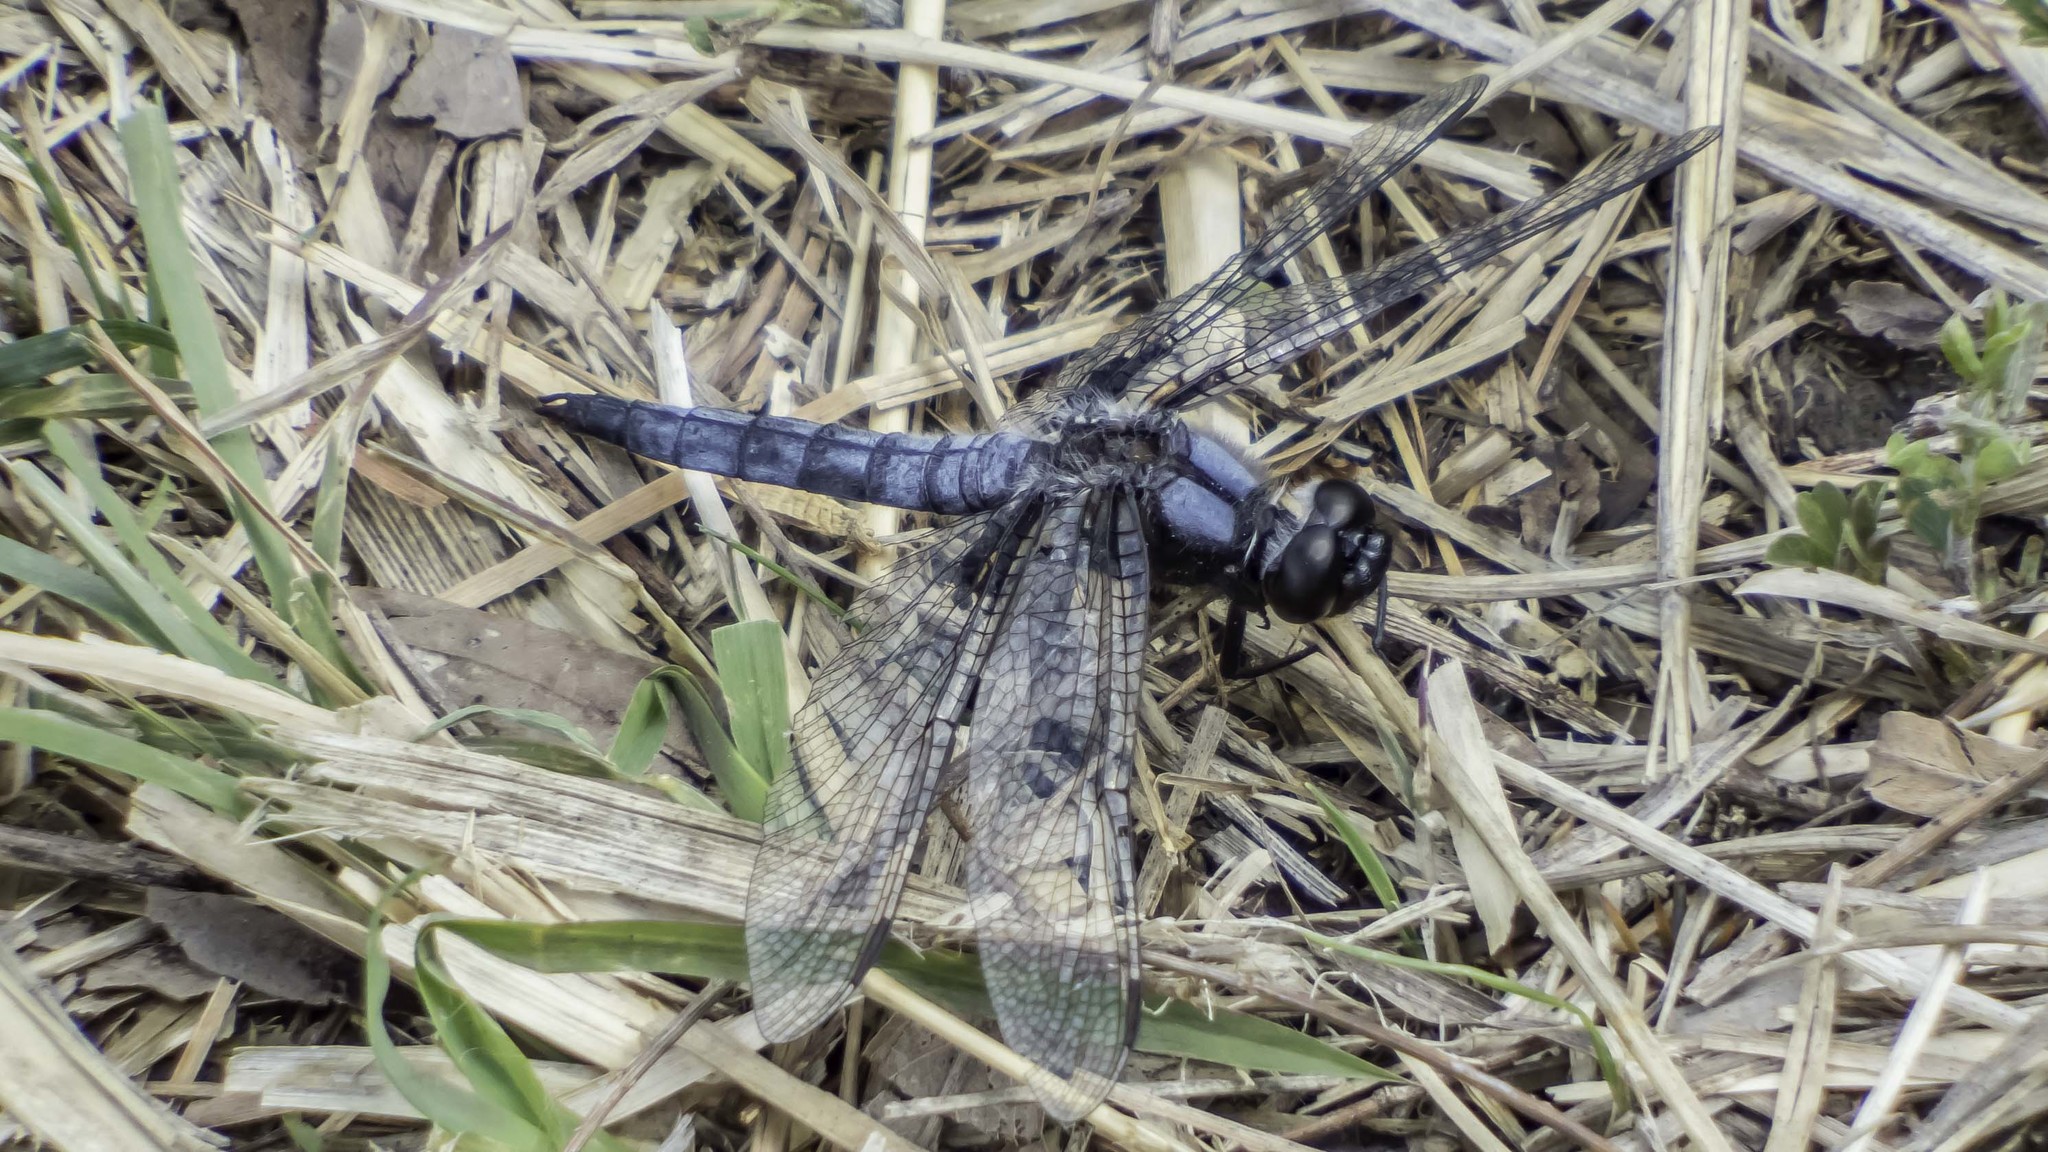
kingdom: Animalia
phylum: Arthropoda
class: Insecta
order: Odonata
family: Libellulidae
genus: Ladona
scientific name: Ladona deplanata
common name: Blue corporal
